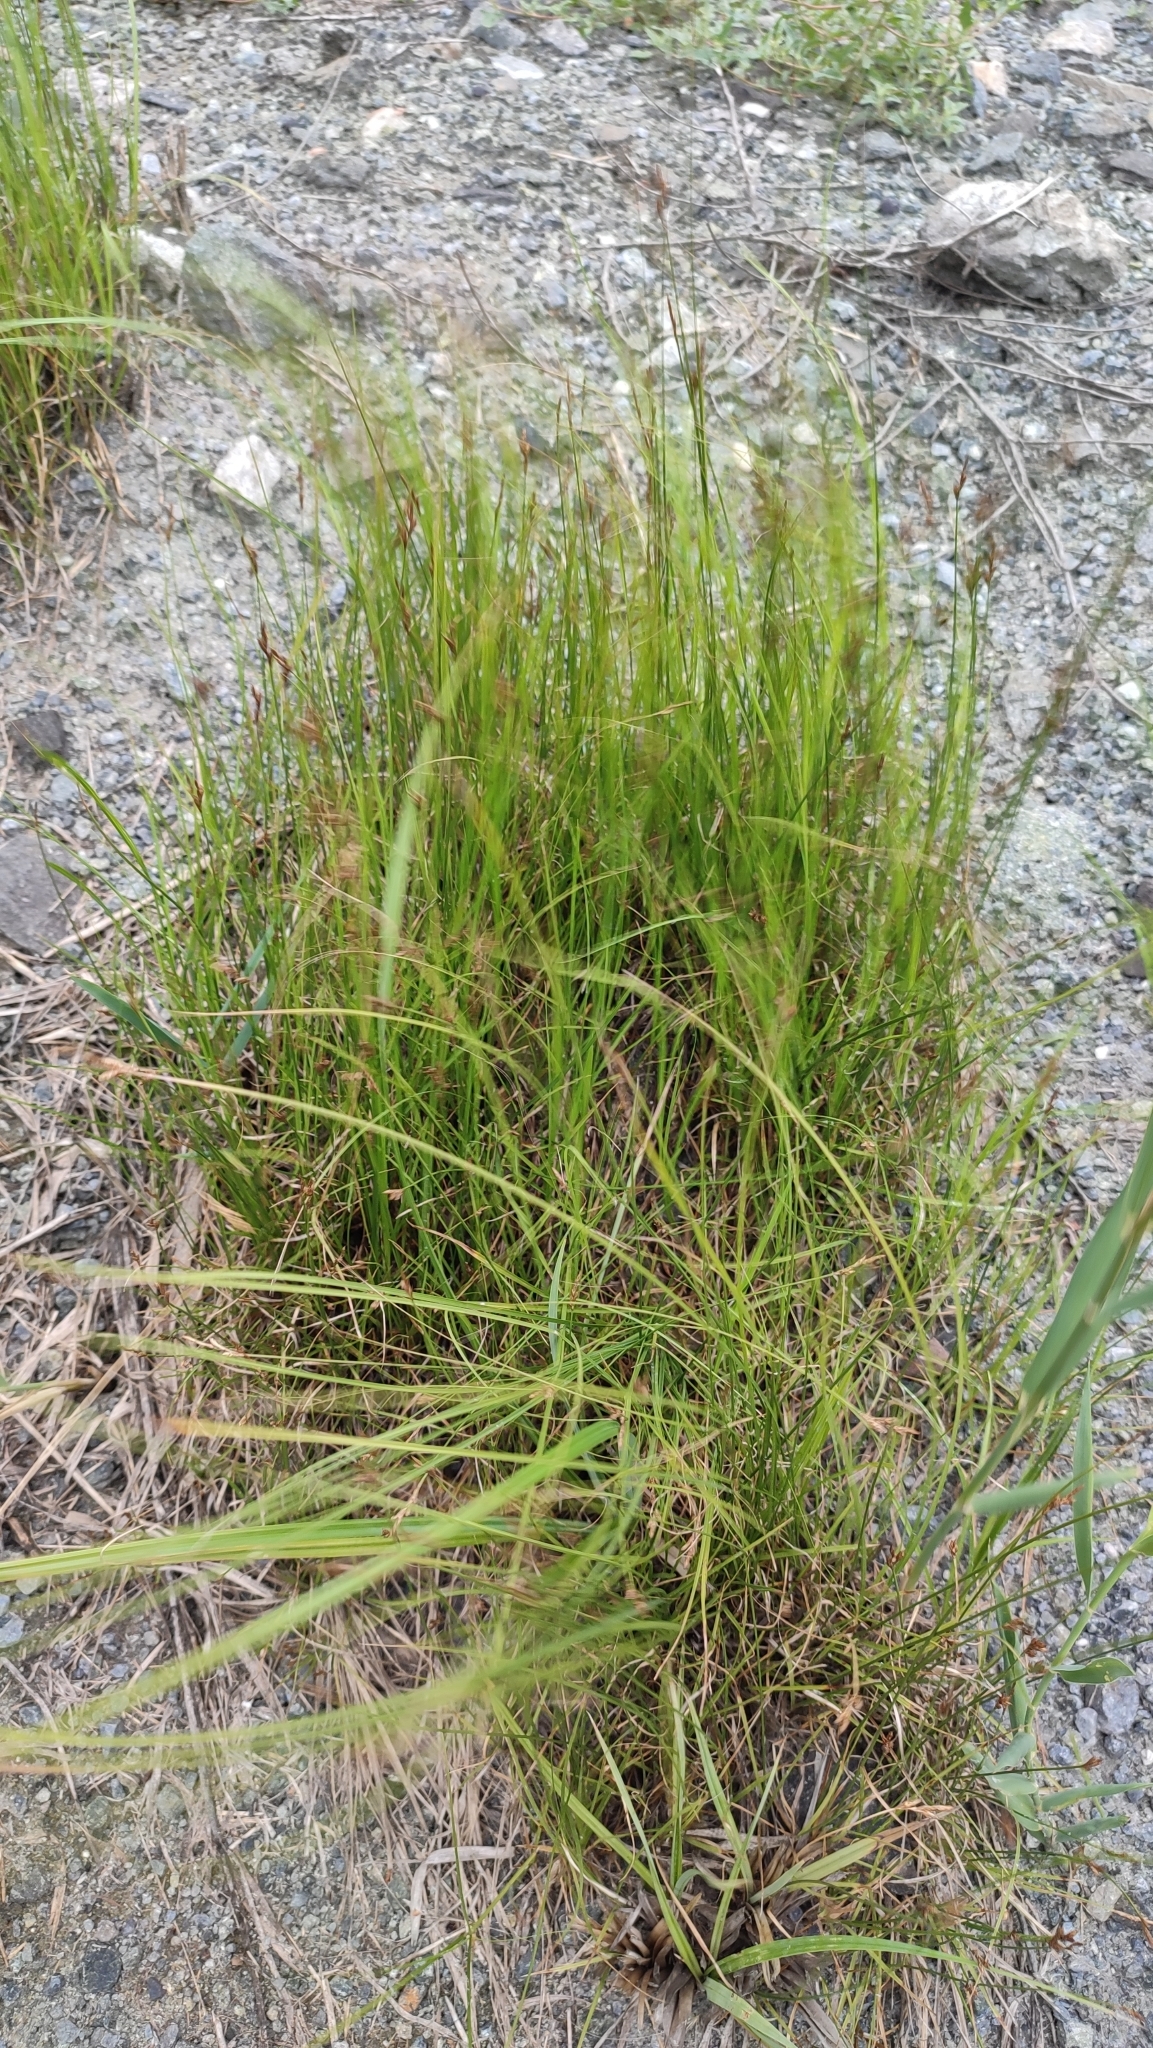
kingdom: Plantae
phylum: Tracheophyta
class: Liliopsida
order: Poales
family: Cyperaceae
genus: Carex
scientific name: Carex praecox
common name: Early sedge
